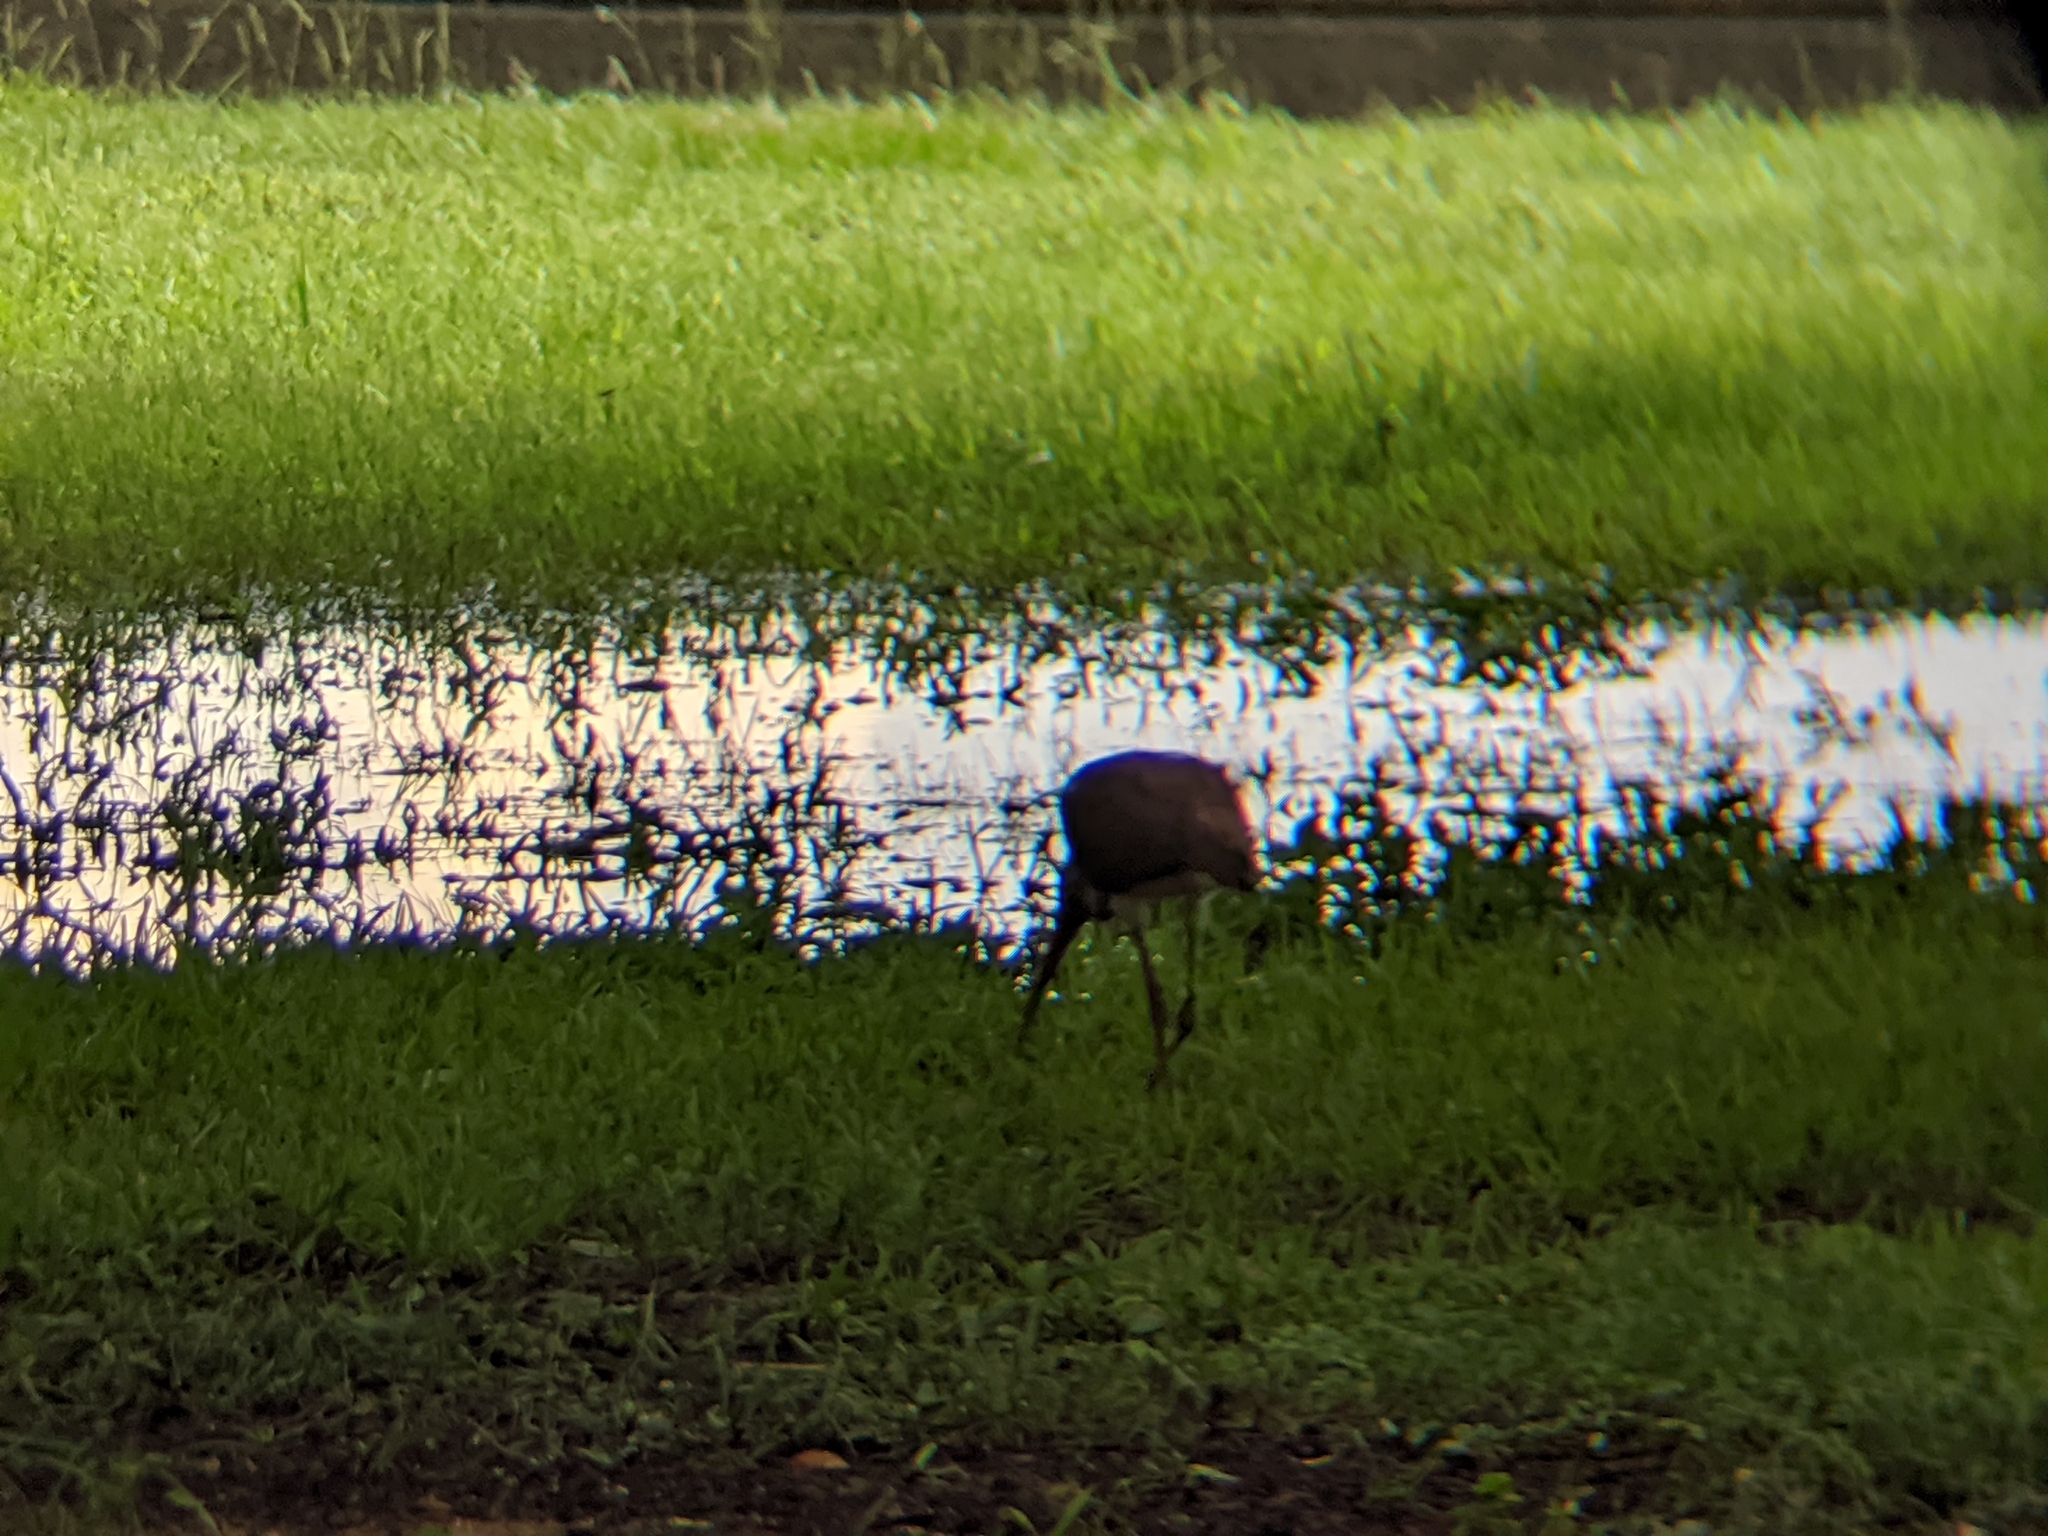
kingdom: Animalia
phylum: Chordata
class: Aves
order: Pelecaniformes
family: Threskiornithidae
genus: Eudocimus
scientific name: Eudocimus albus
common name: White ibis
